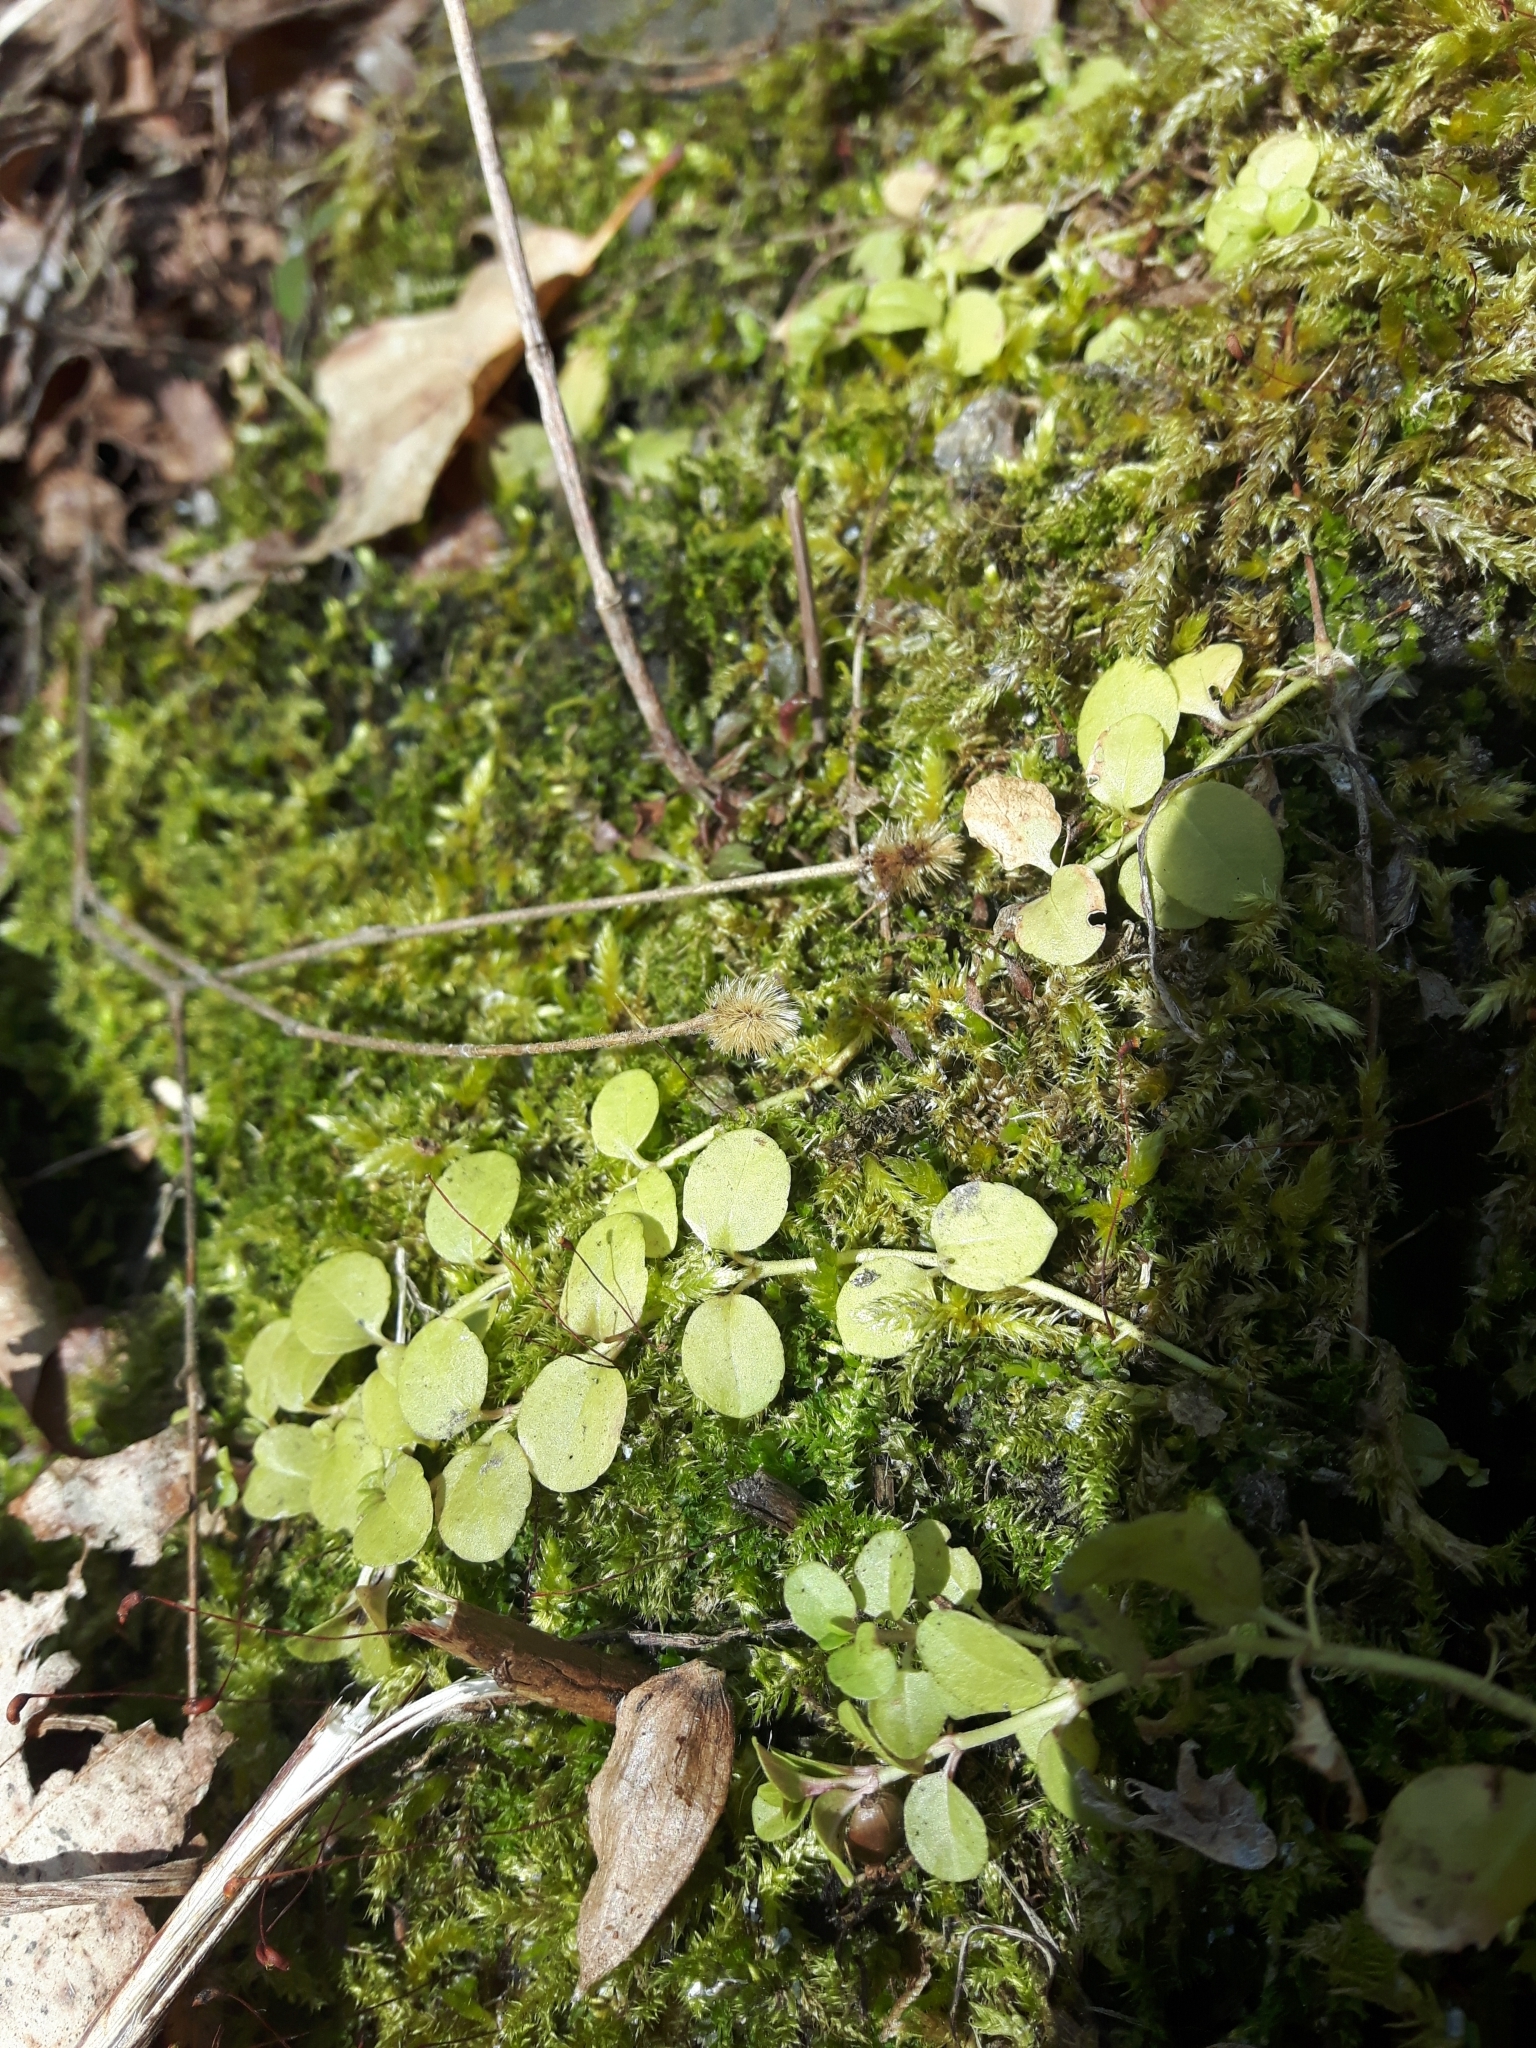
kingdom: Plantae
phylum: Tracheophyta
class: Magnoliopsida
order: Dipsacales
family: Caprifoliaceae
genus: Linnaea
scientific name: Linnaea borealis
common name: Twinflower
